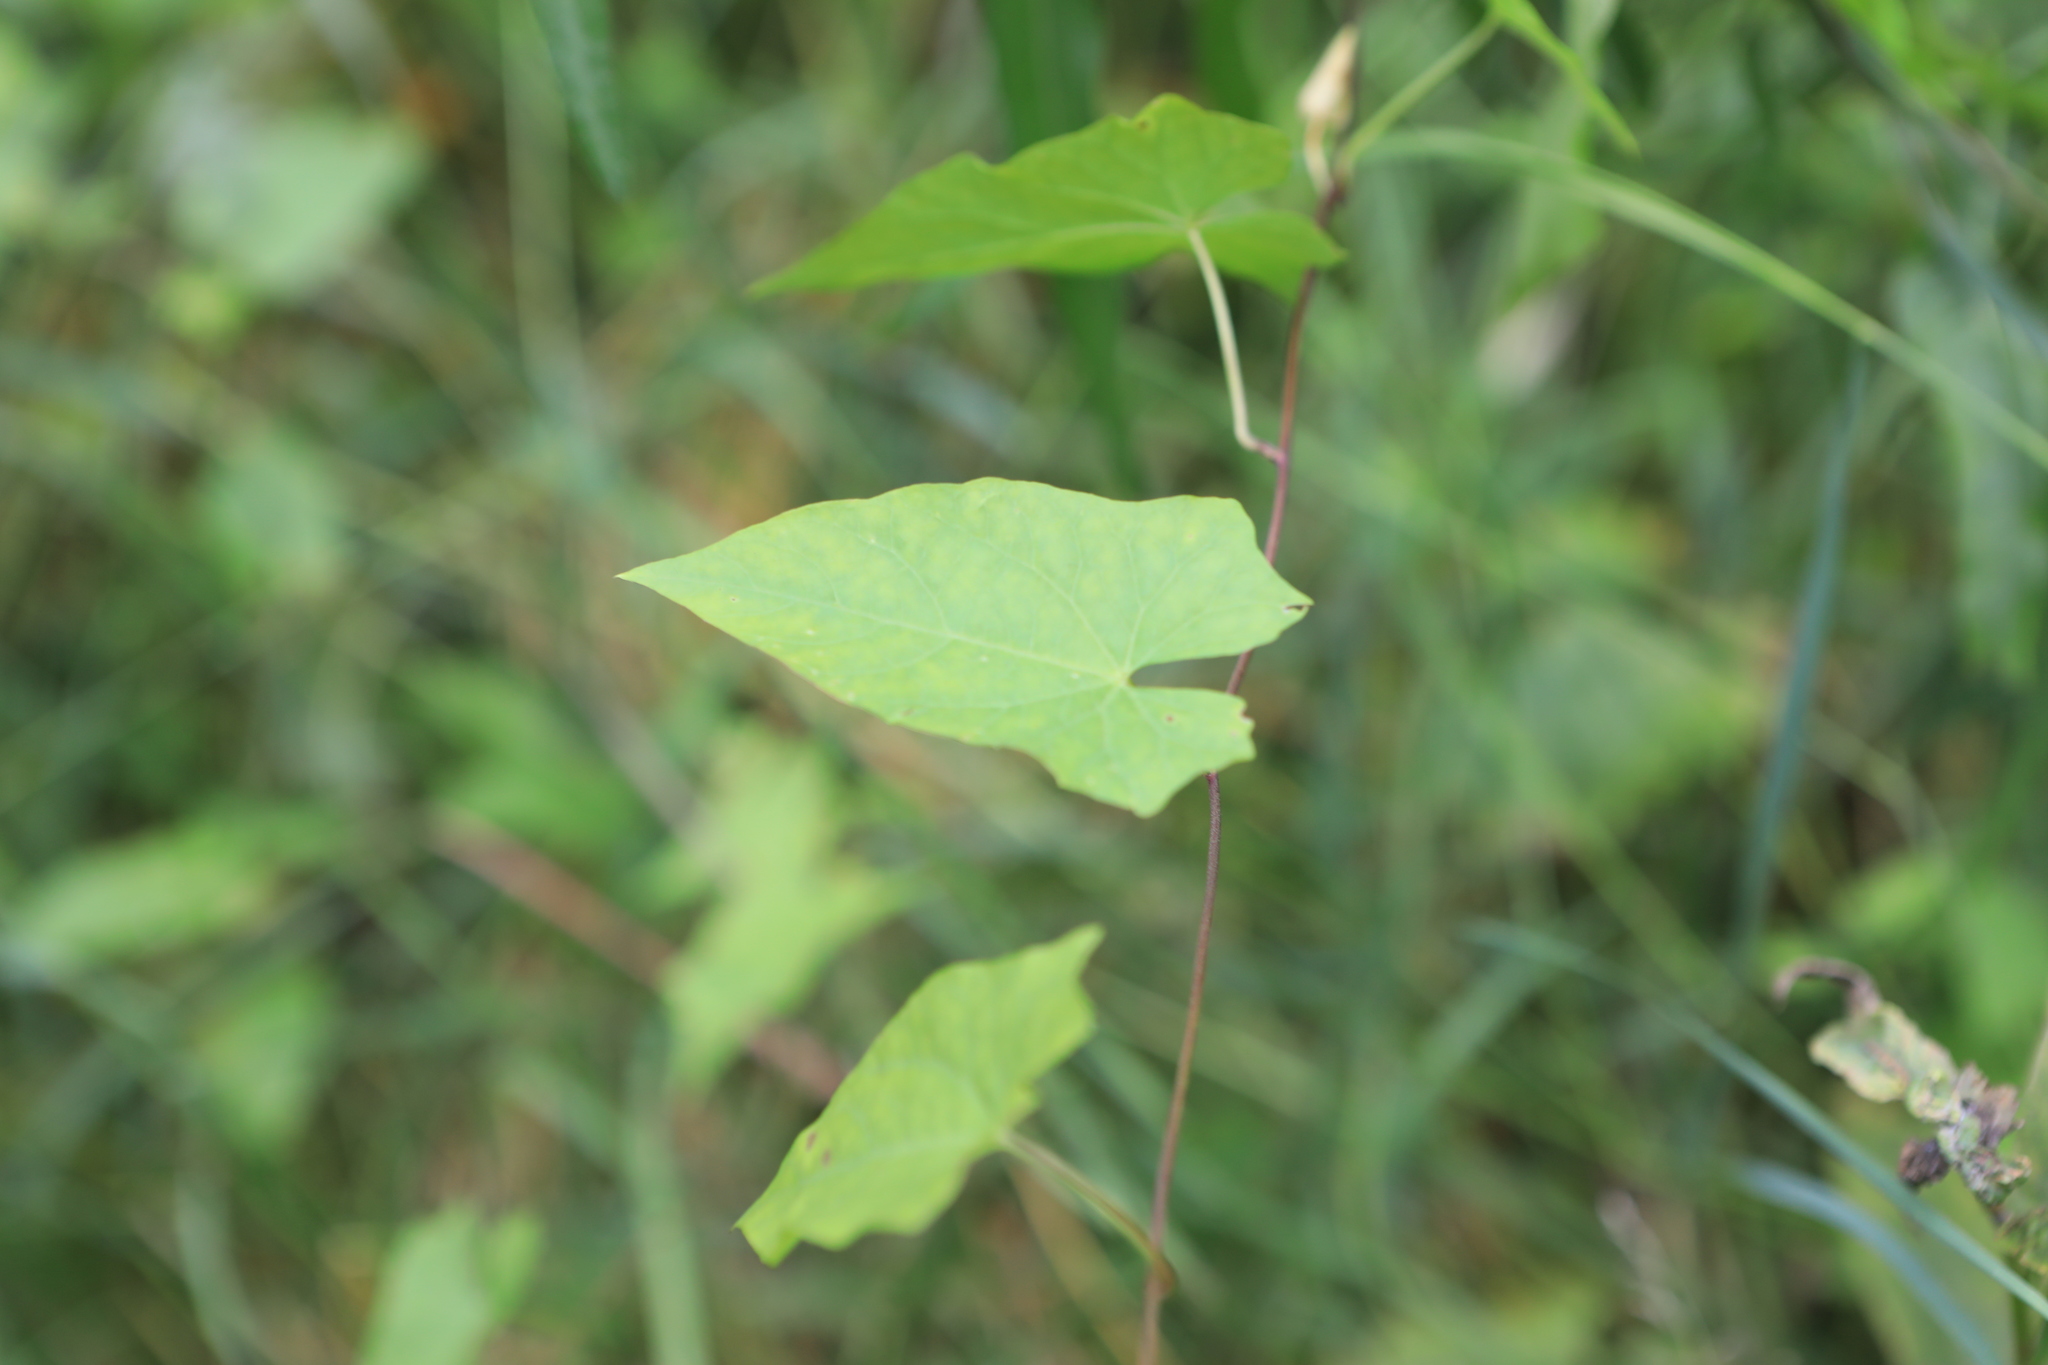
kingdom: Plantae
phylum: Tracheophyta
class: Magnoliopsida
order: Solanales
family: Convolvulaceae
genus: Calystegia
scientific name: Calystegia sepium
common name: Hedge bindweed
